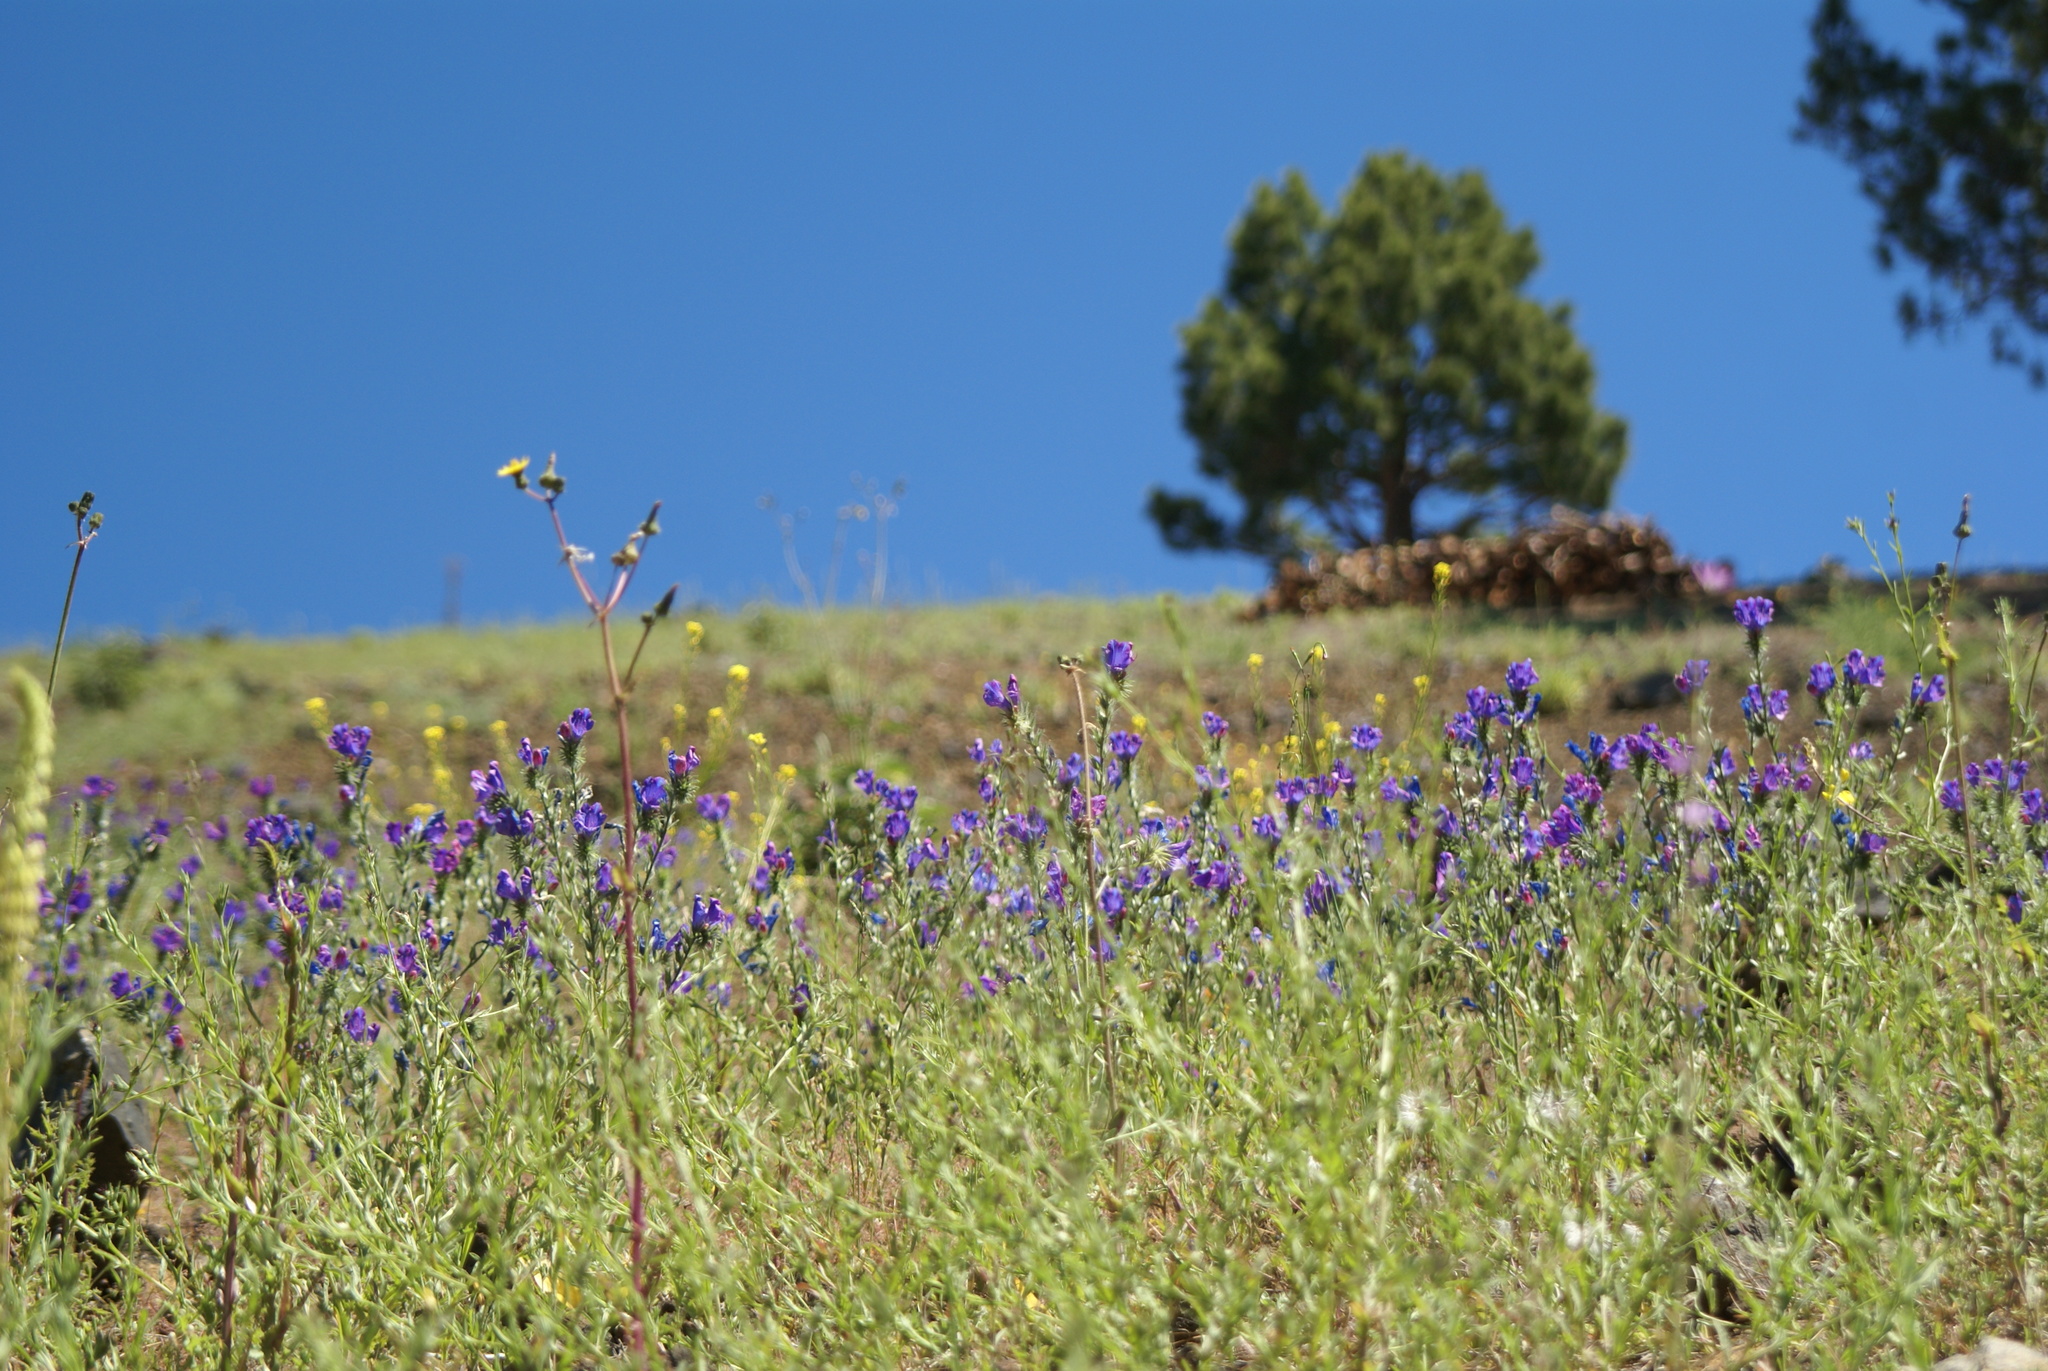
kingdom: Plantae
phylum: Tracheophyta
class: Magnoliopsida
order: Boraginales
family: Boraginaceae
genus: Echium
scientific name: Echium plantagineum
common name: Purple viper's-bugloss
